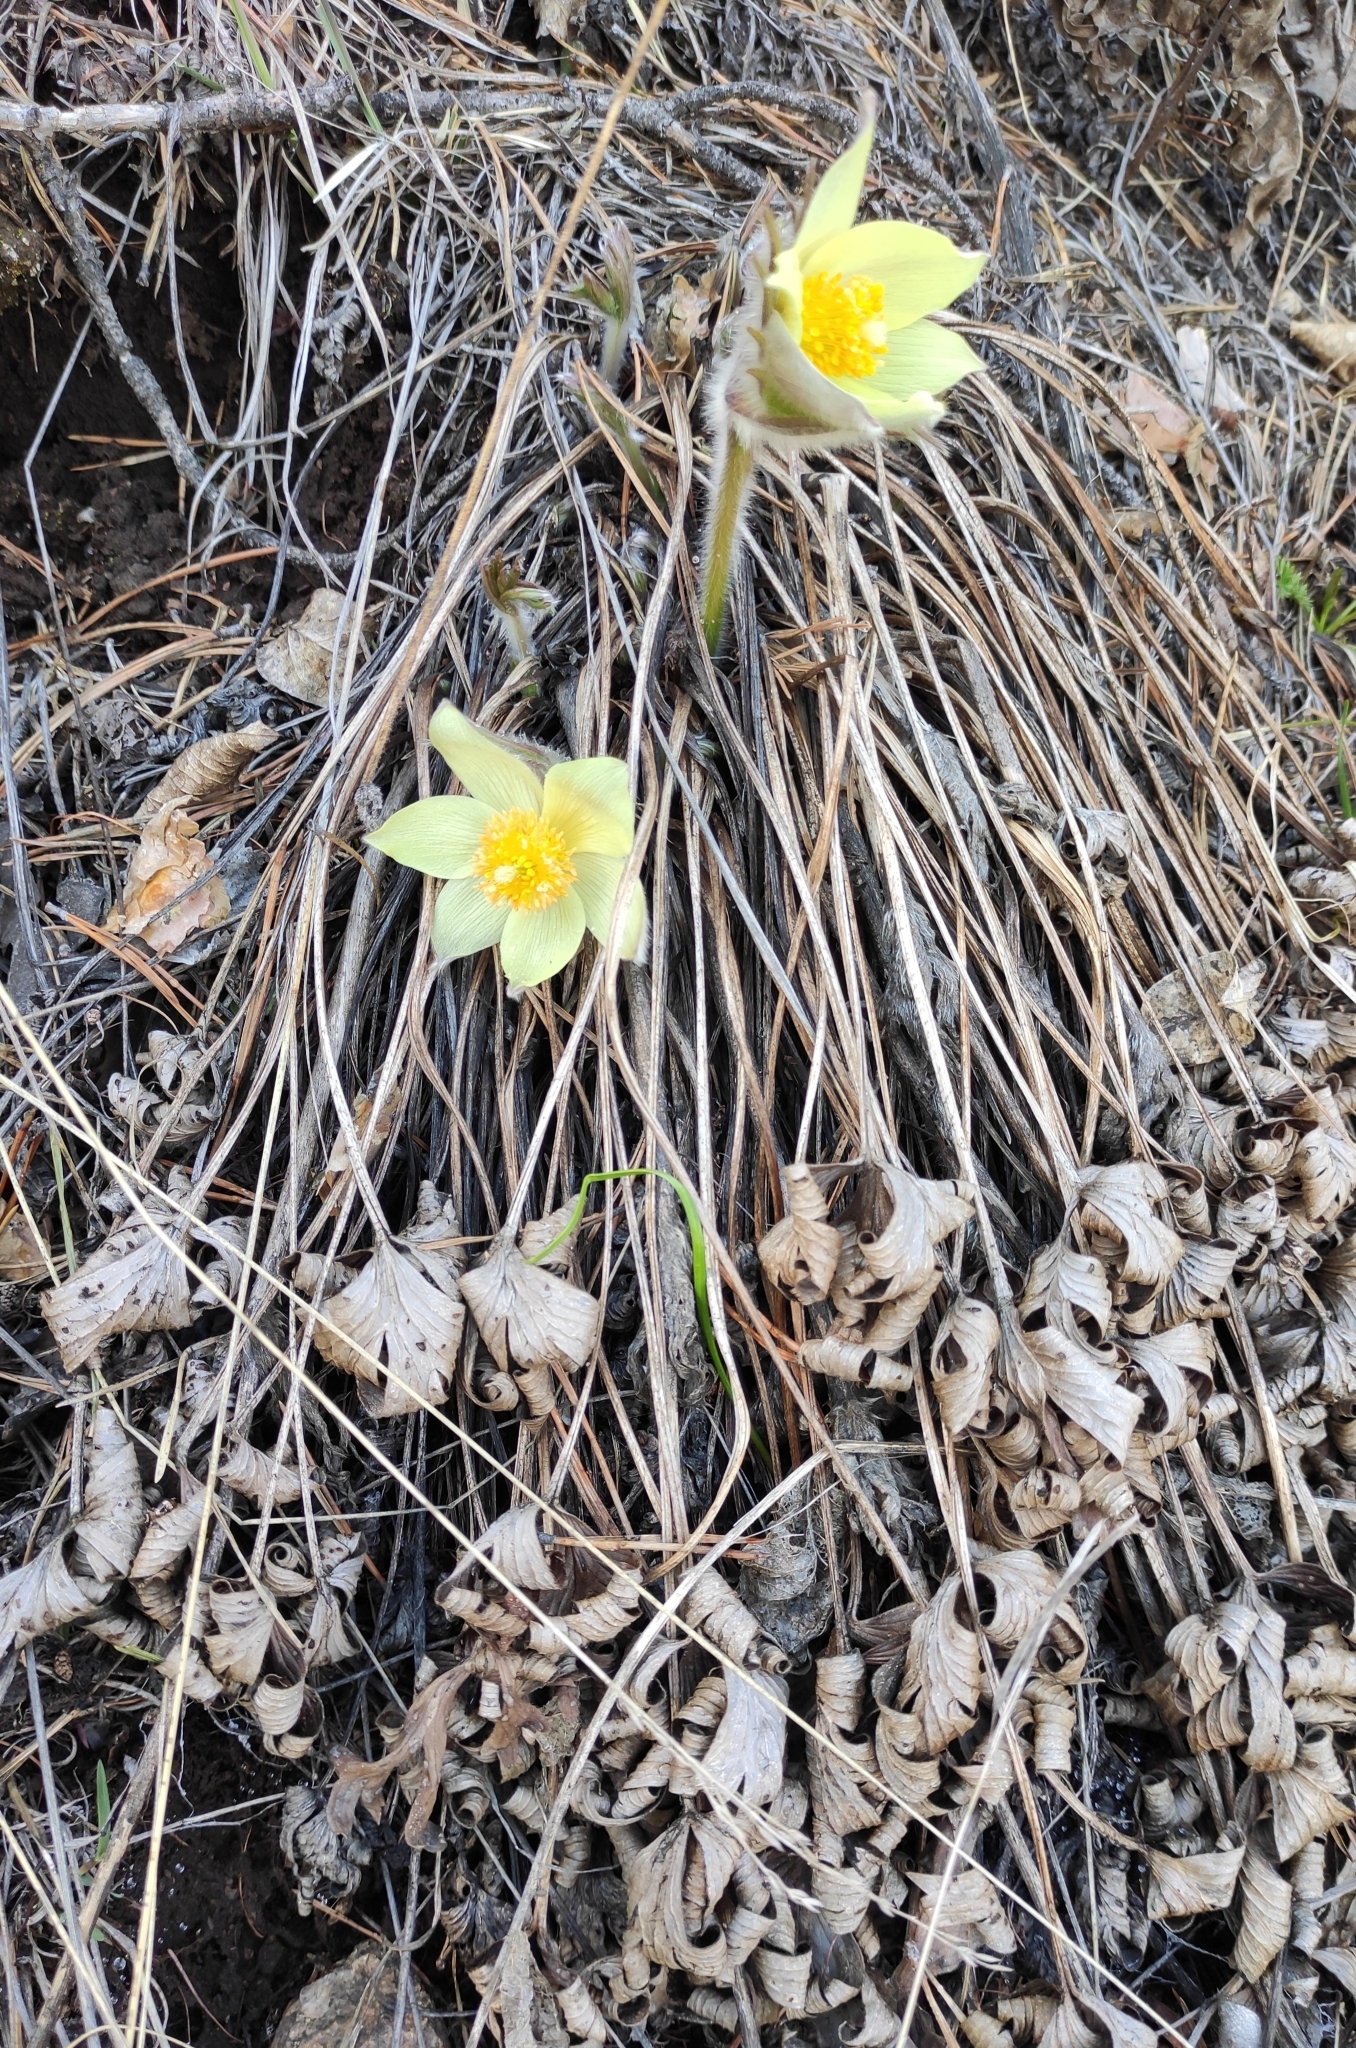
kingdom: Plantae
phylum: Tracheophyta
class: Magnoliopsida
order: Ranunculales
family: Ranunculaceae
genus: Pulsatilla
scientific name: Pulsatilla patens
